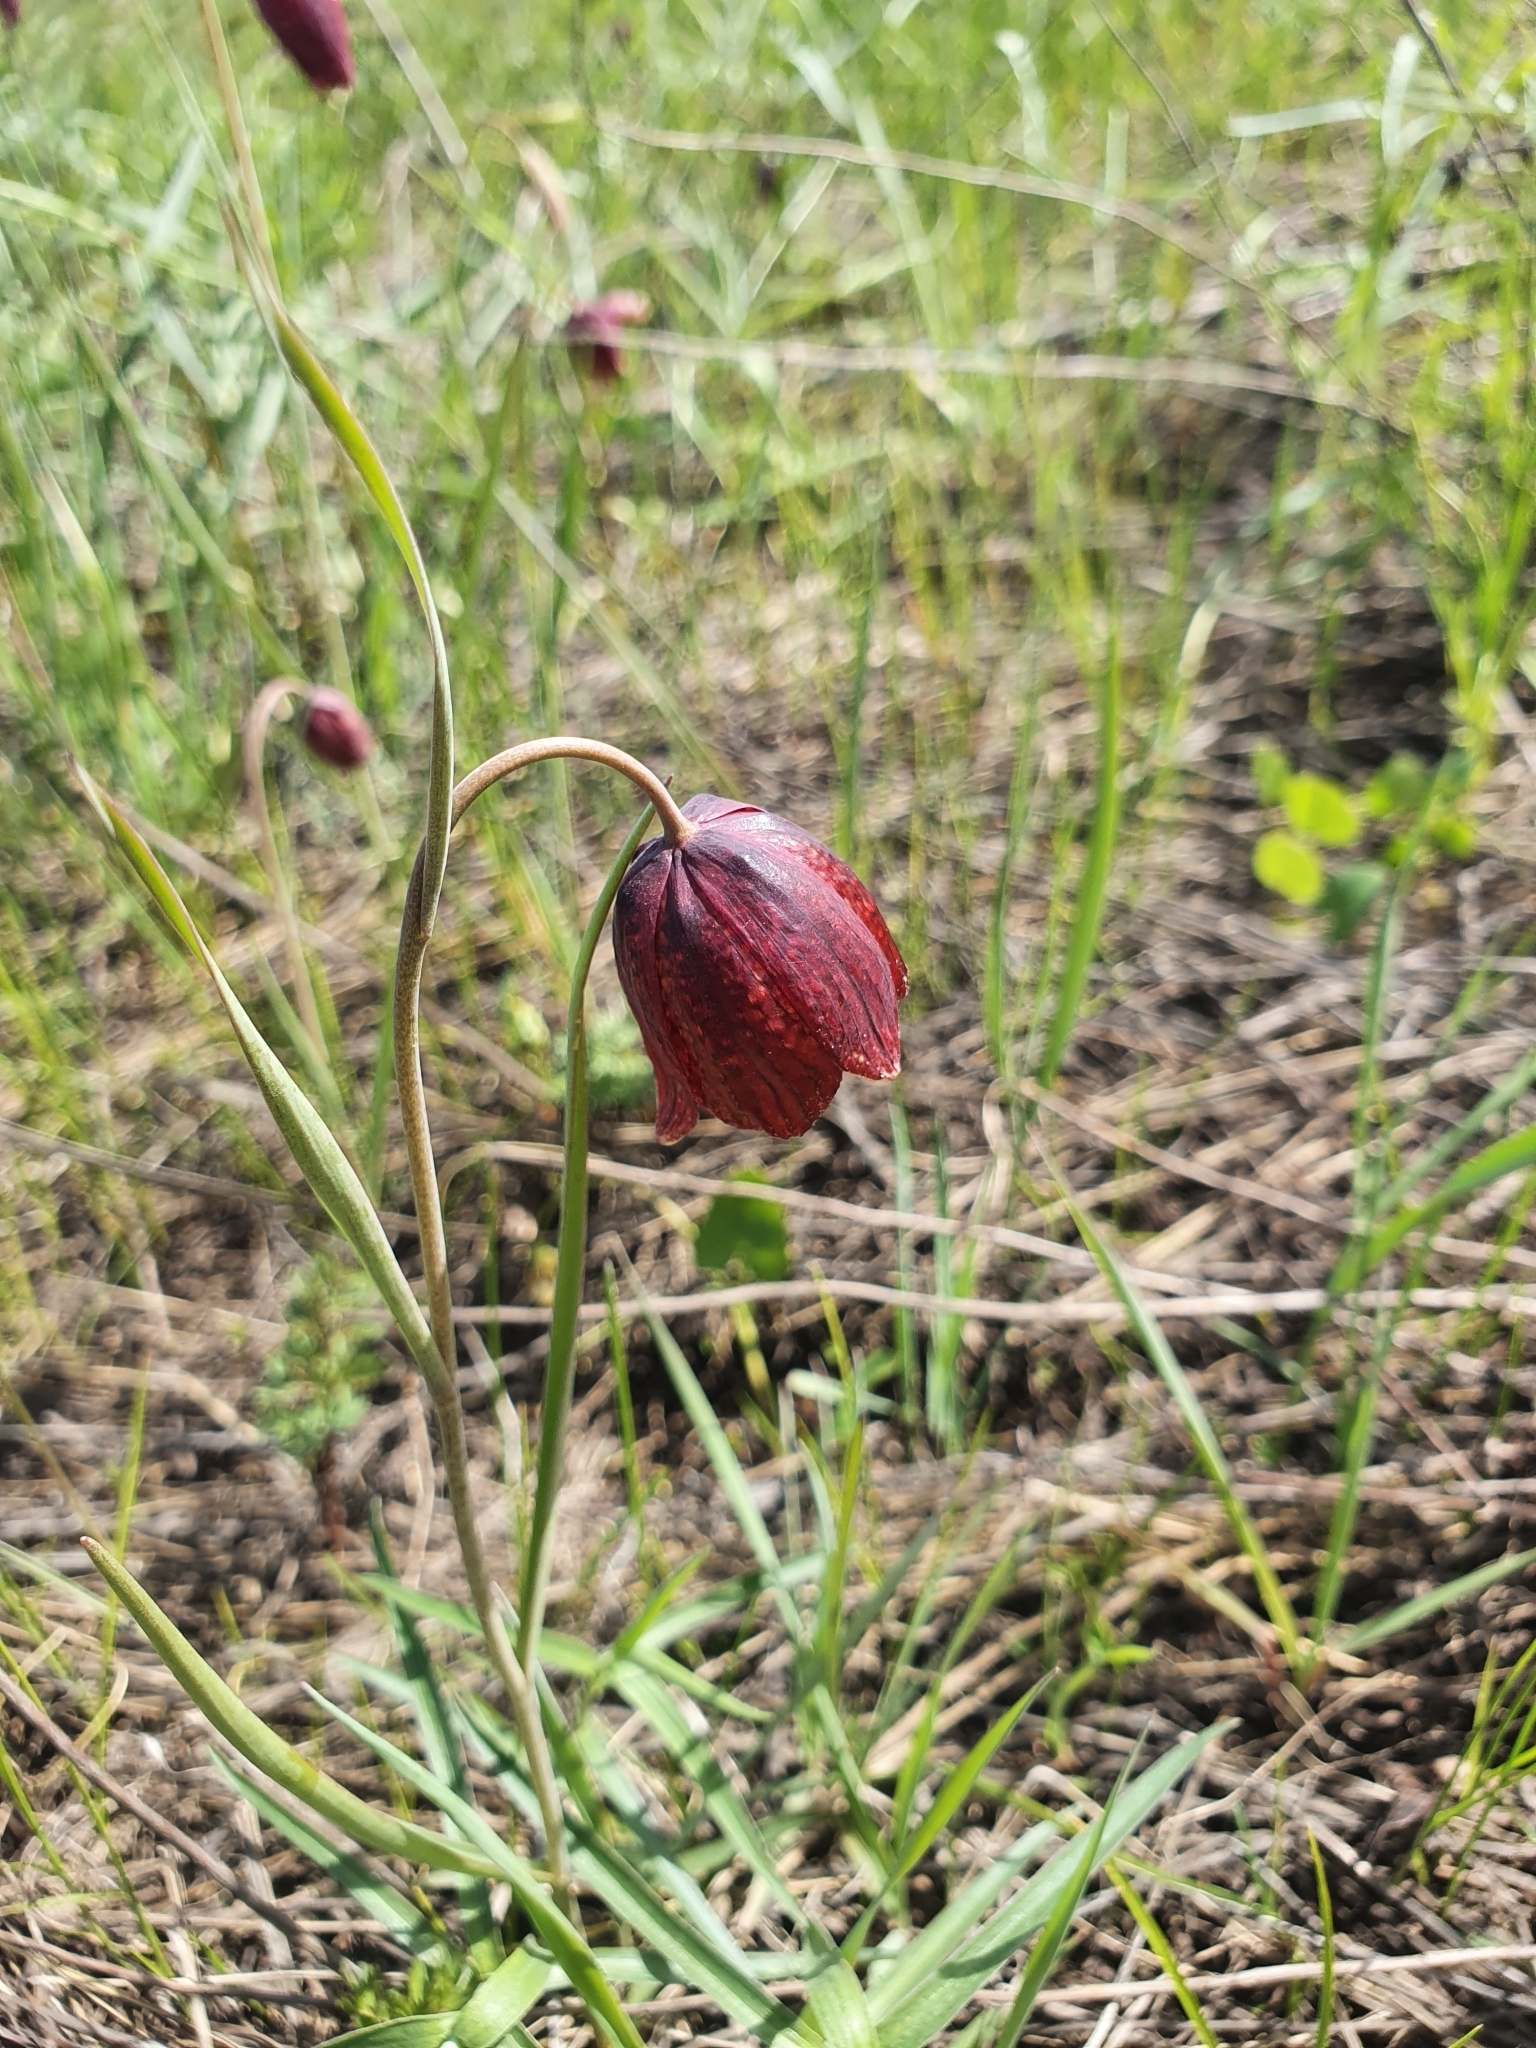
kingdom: Plantae
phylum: Tracheophyta
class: Liliopsida
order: Liliales
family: Liliaceae
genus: Fritillaria
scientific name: Fritillaria meleagris
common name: Fritillary
